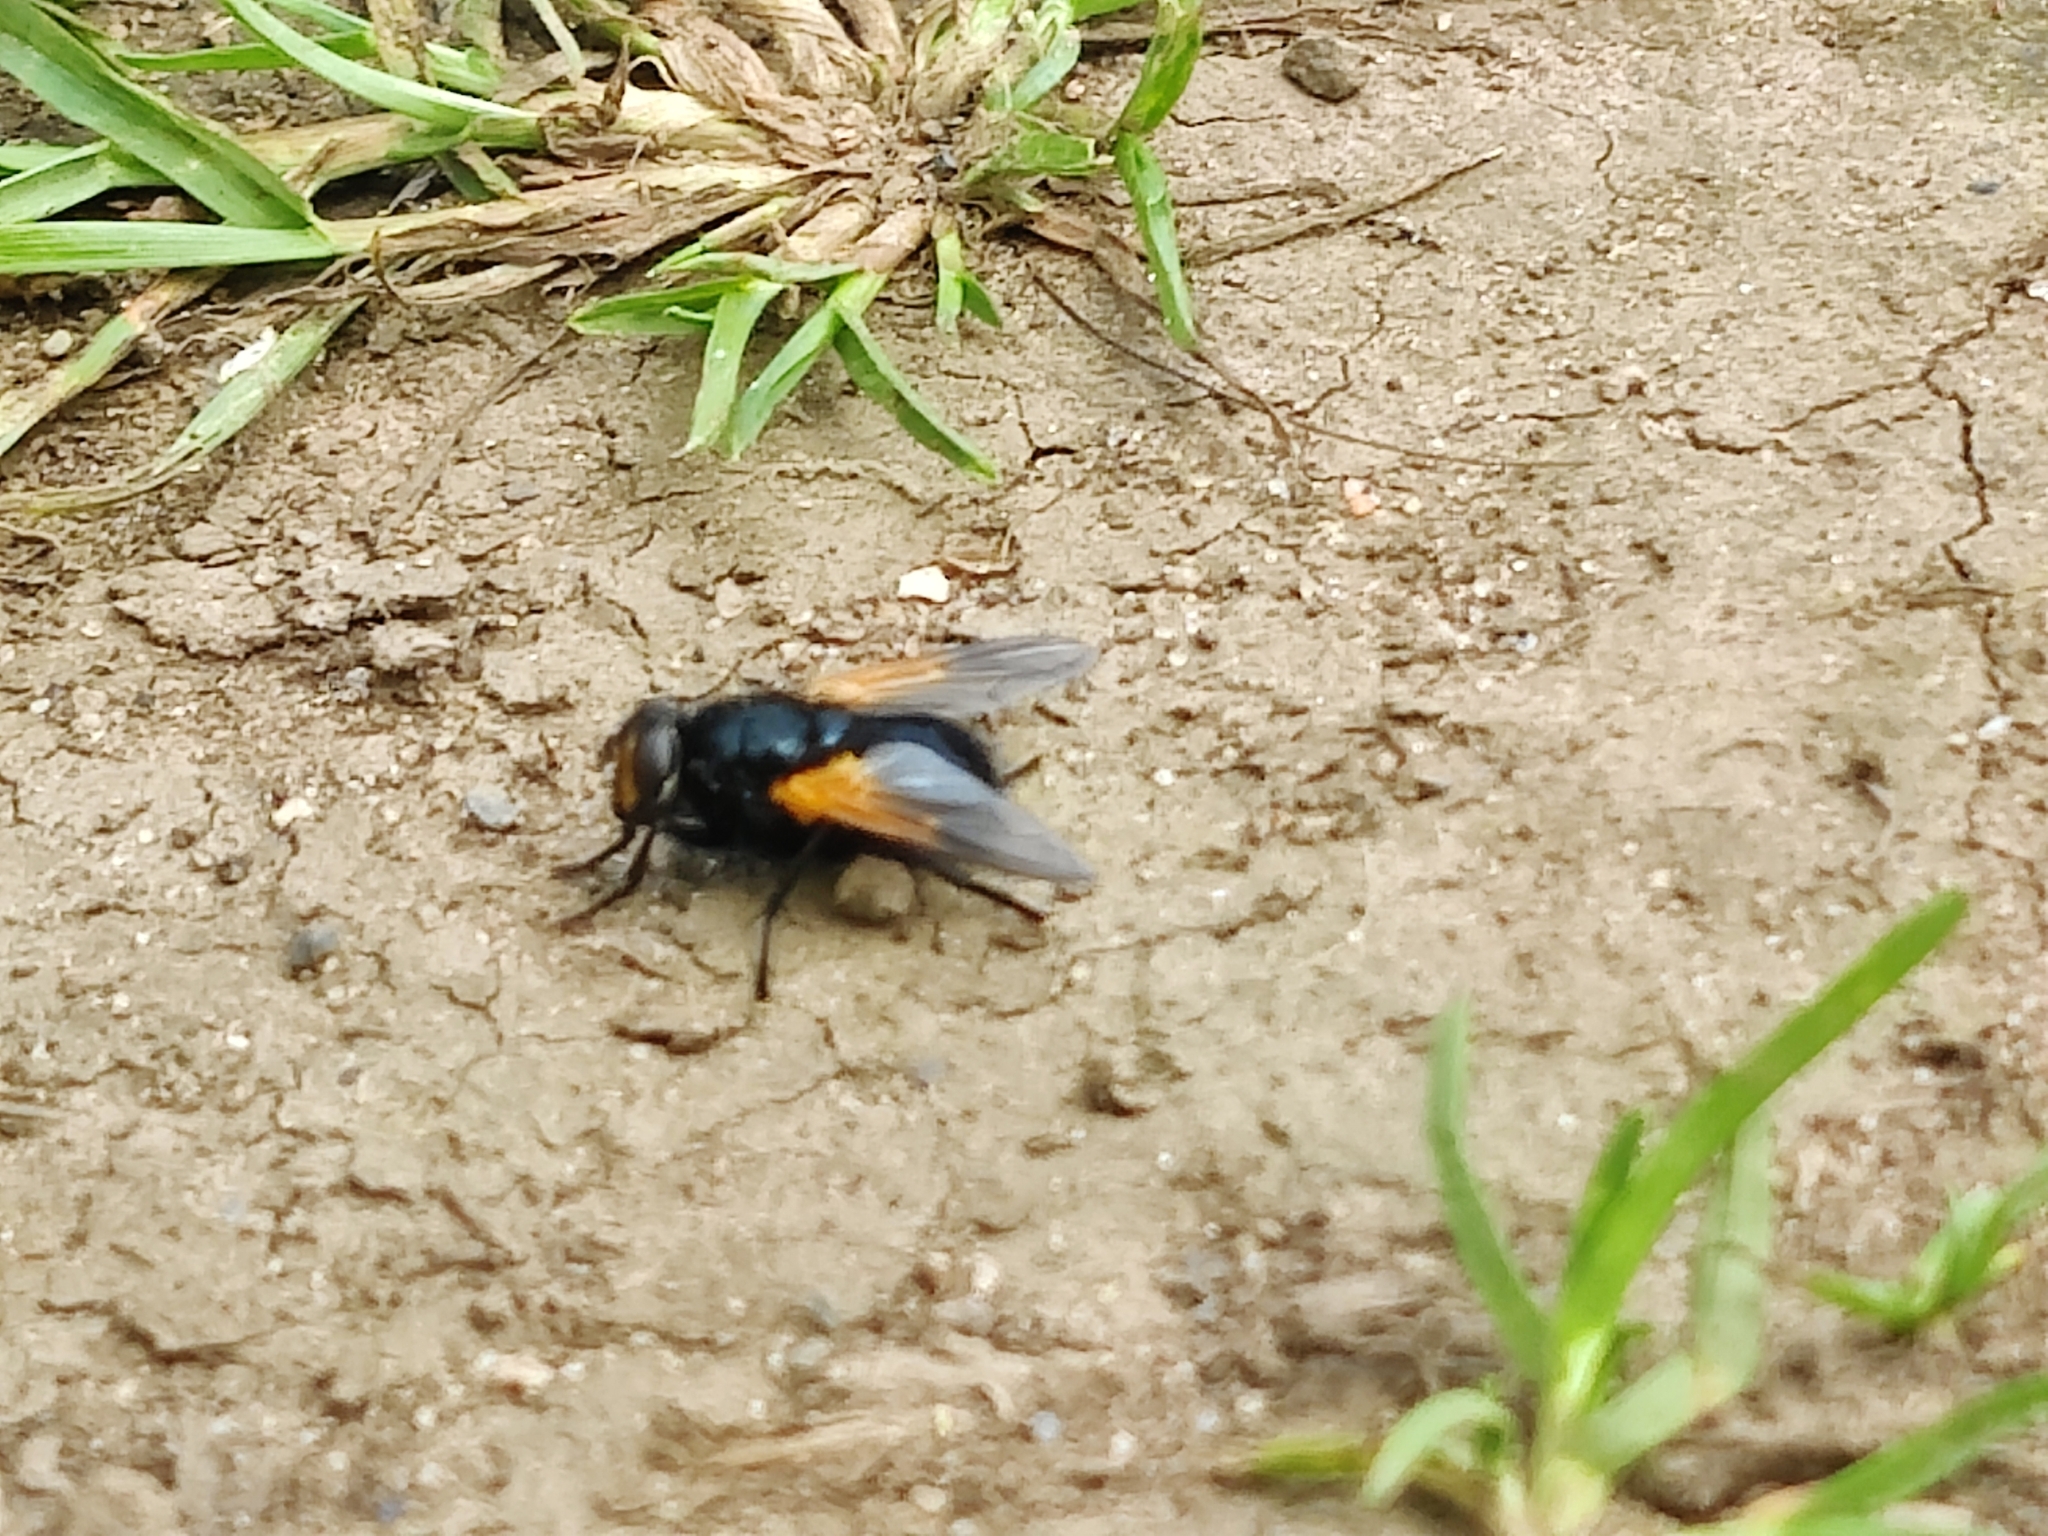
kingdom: Animalia
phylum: Arthropoda
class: Insecta
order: Diptera
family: Muscidae
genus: Mesembrina
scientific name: Mesembrina meridiana
